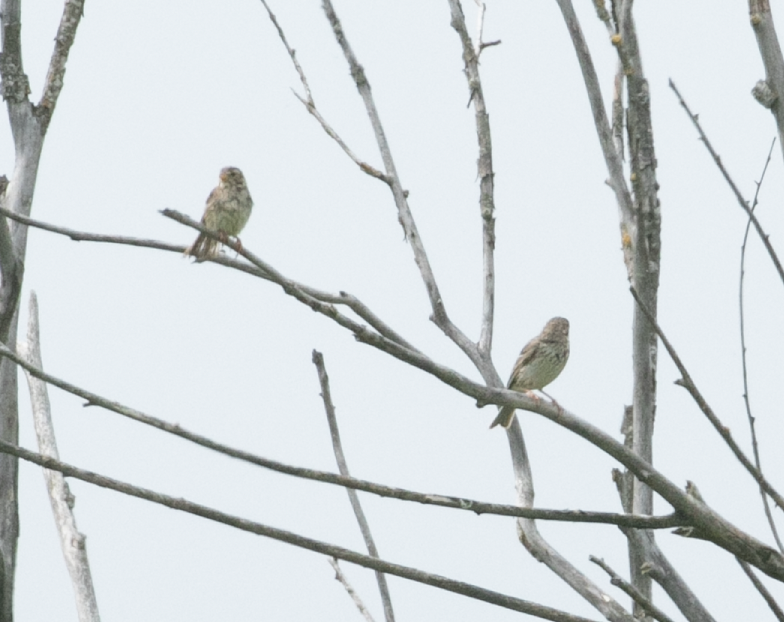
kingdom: Animalia
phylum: Chordata
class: Aves
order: Passeriformes
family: Emberizidae
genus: Emberiza
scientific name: Emberiza calandra
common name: Corn bunting
